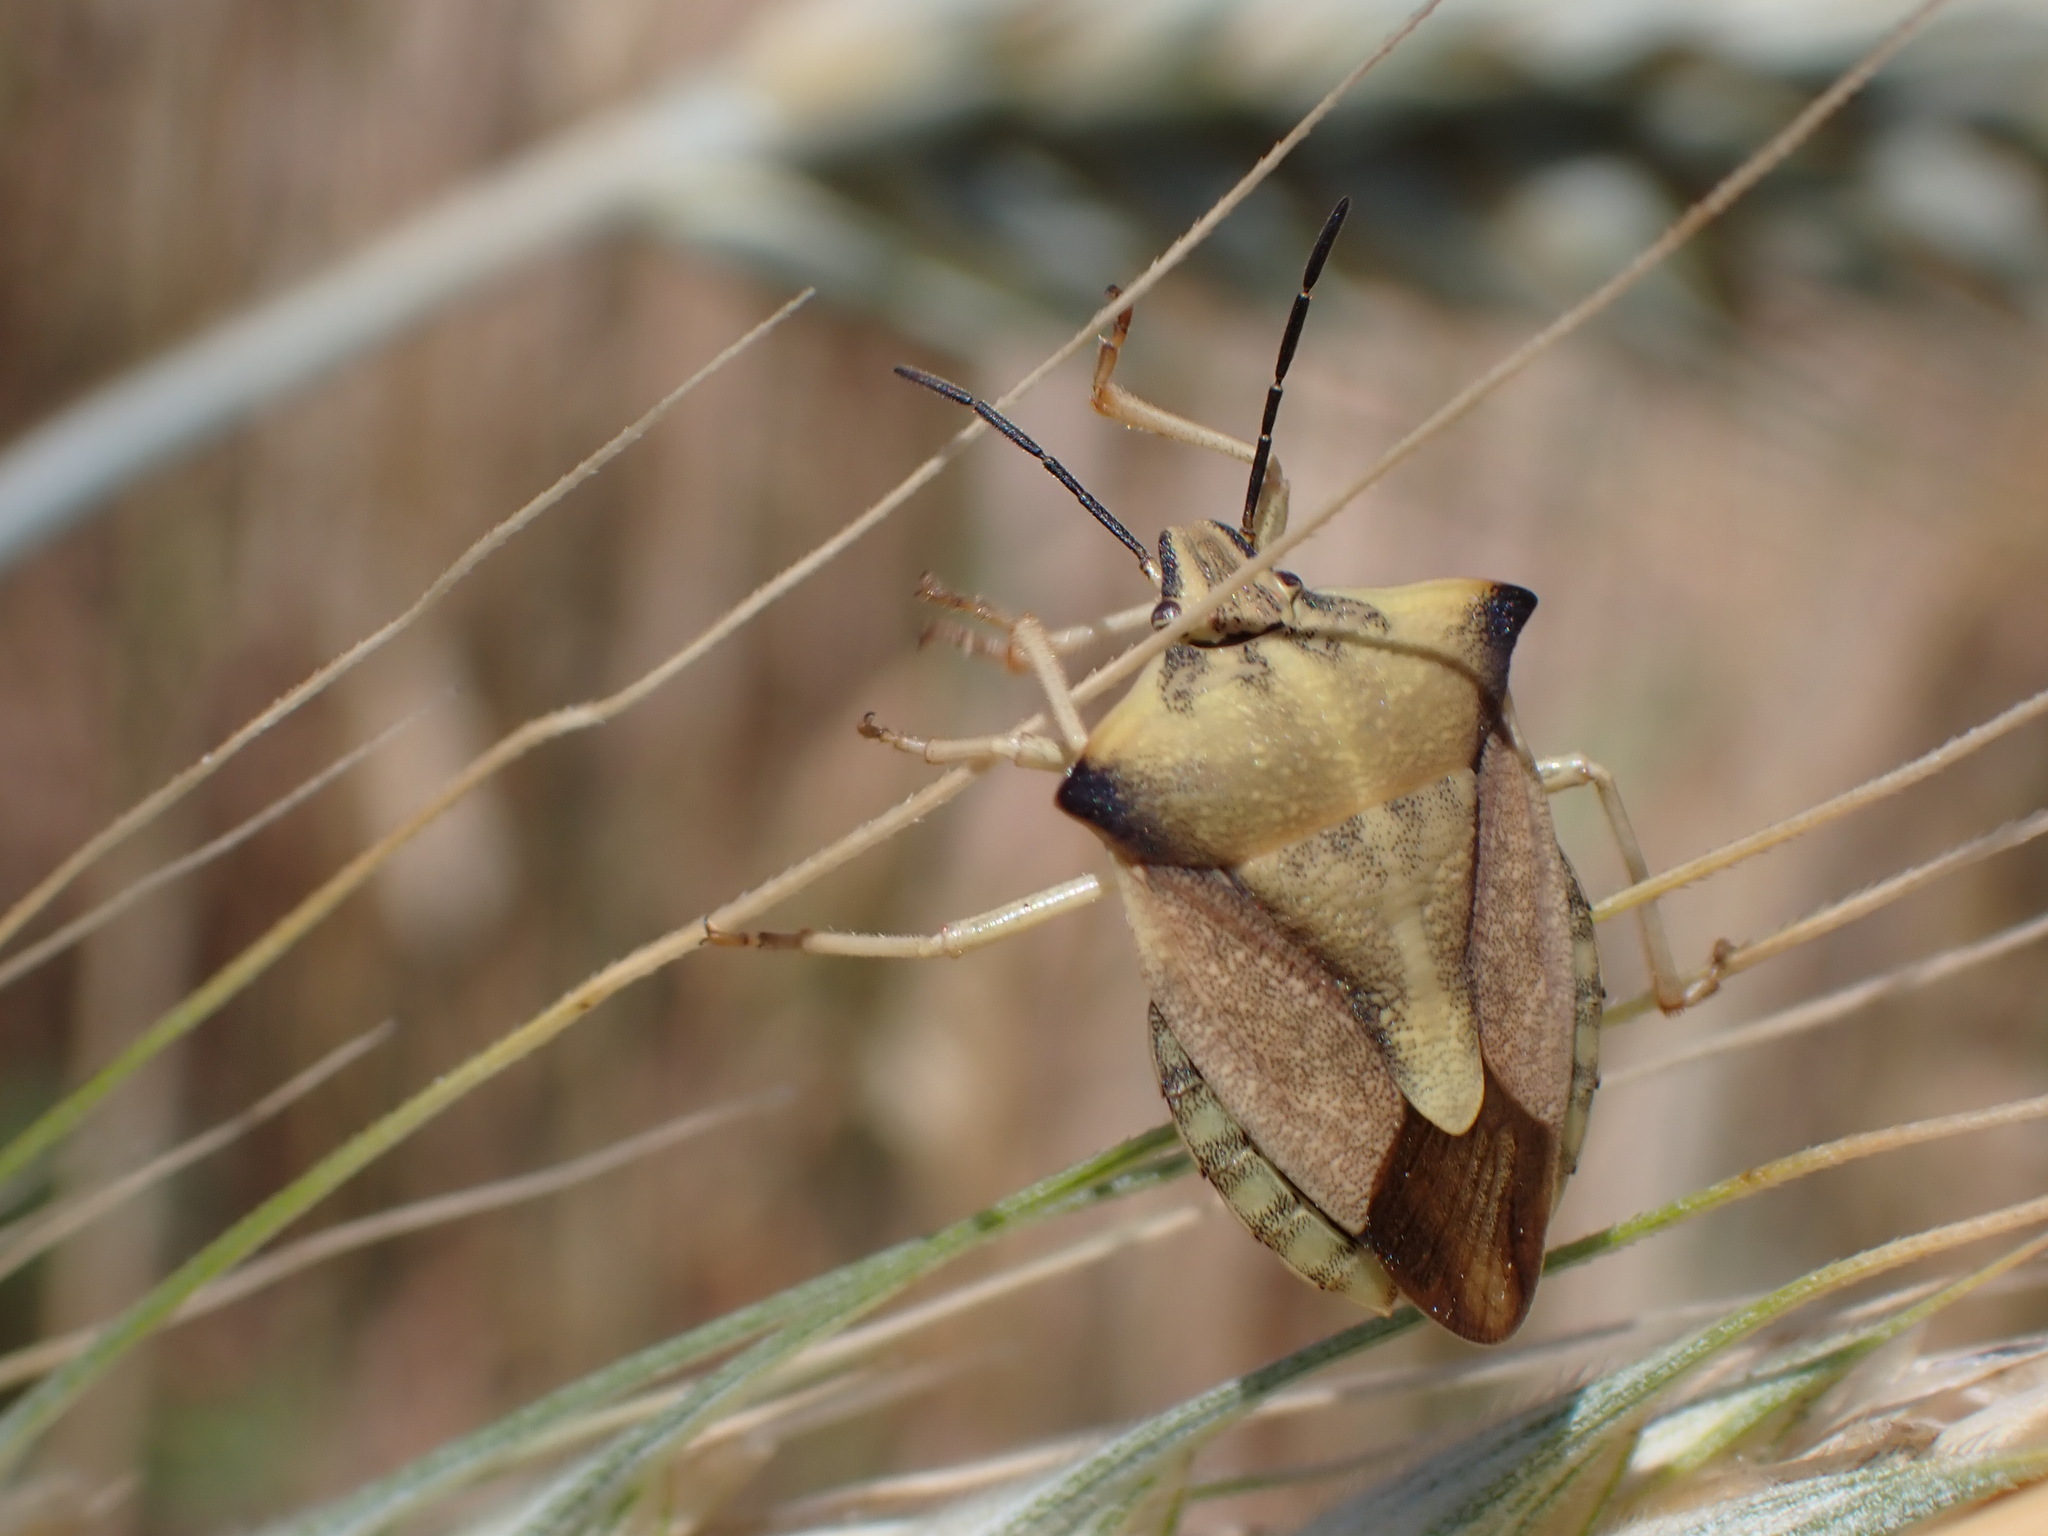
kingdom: Animalia
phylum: Arthropoda
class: Insecta
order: Hemiptera
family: Pentatomidae
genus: Carpocoris
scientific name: Carpocoris fuscispinus
